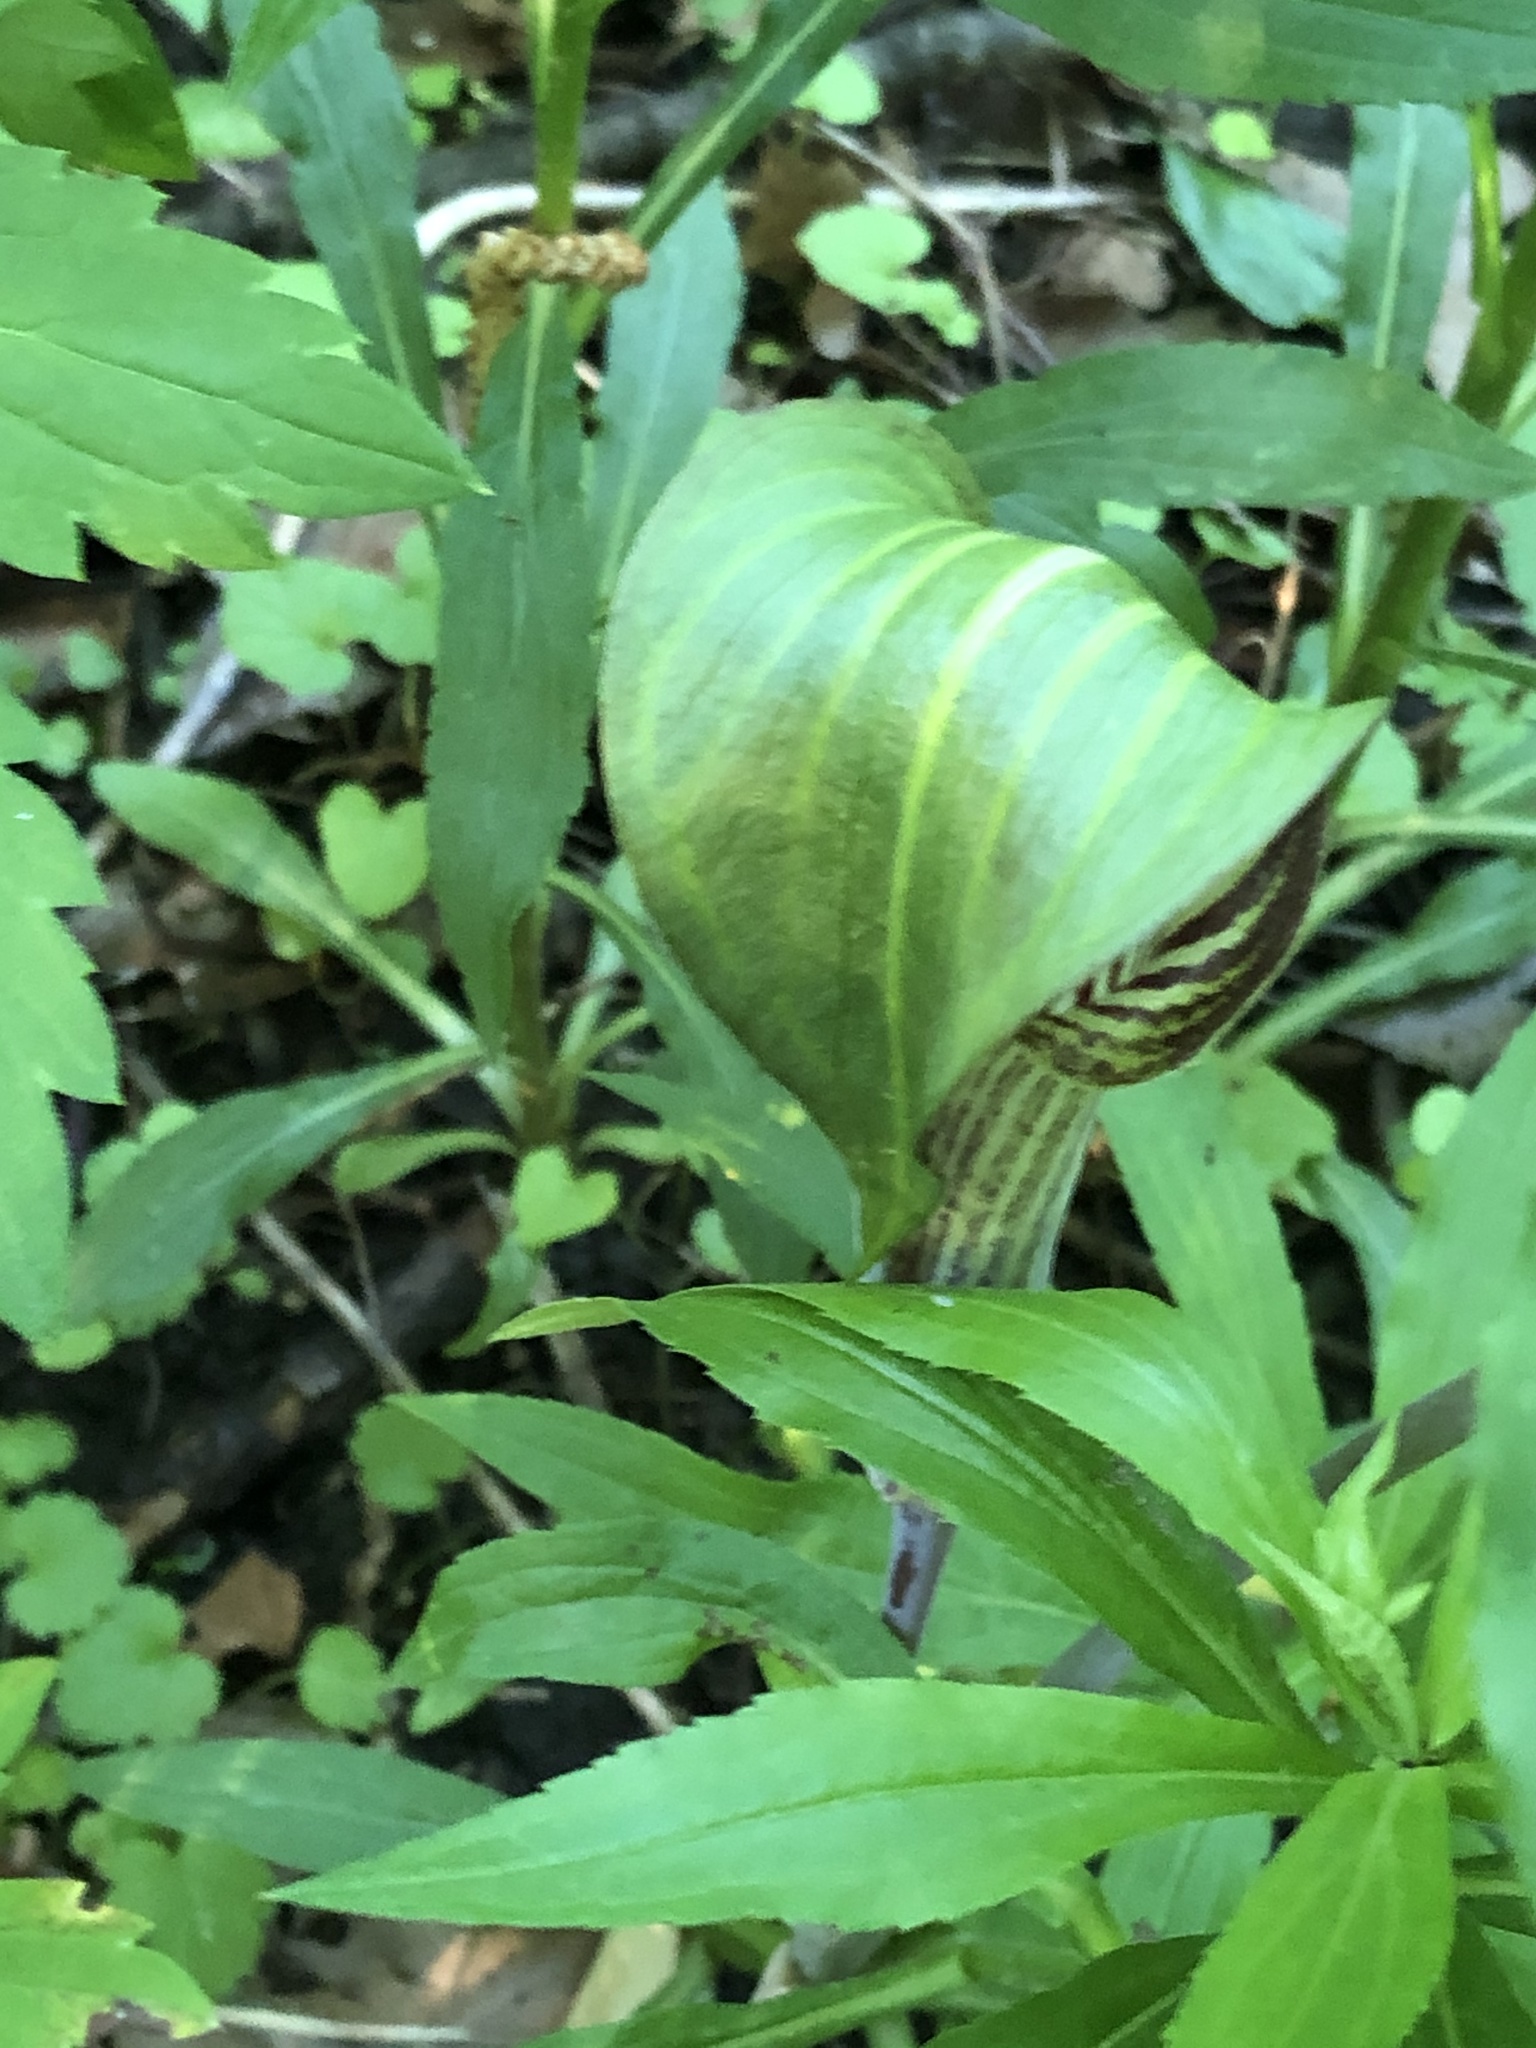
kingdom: Plantae
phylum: Tracheophyta
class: Liliopsida
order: Alismatales
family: Araceae
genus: Arisaema
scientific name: Arisaema triphyllum
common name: Jack-in-the-pulpit
